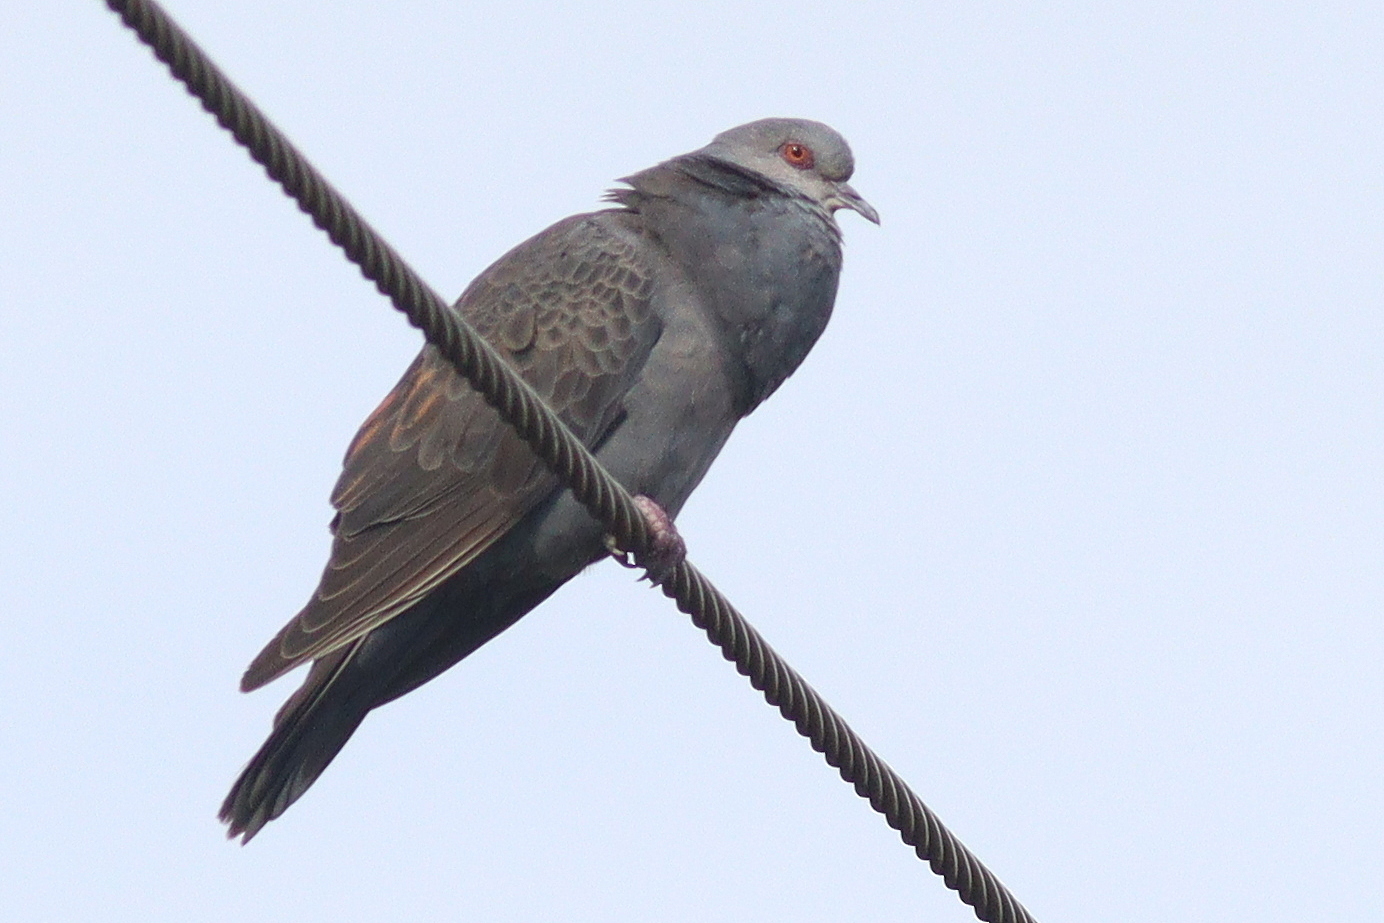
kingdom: Animalia
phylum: Chordata
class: Aves
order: Columbiformes
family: Columbidae
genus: Streptopelia
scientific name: Streptopelia lugens
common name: Dusky turtle dove
